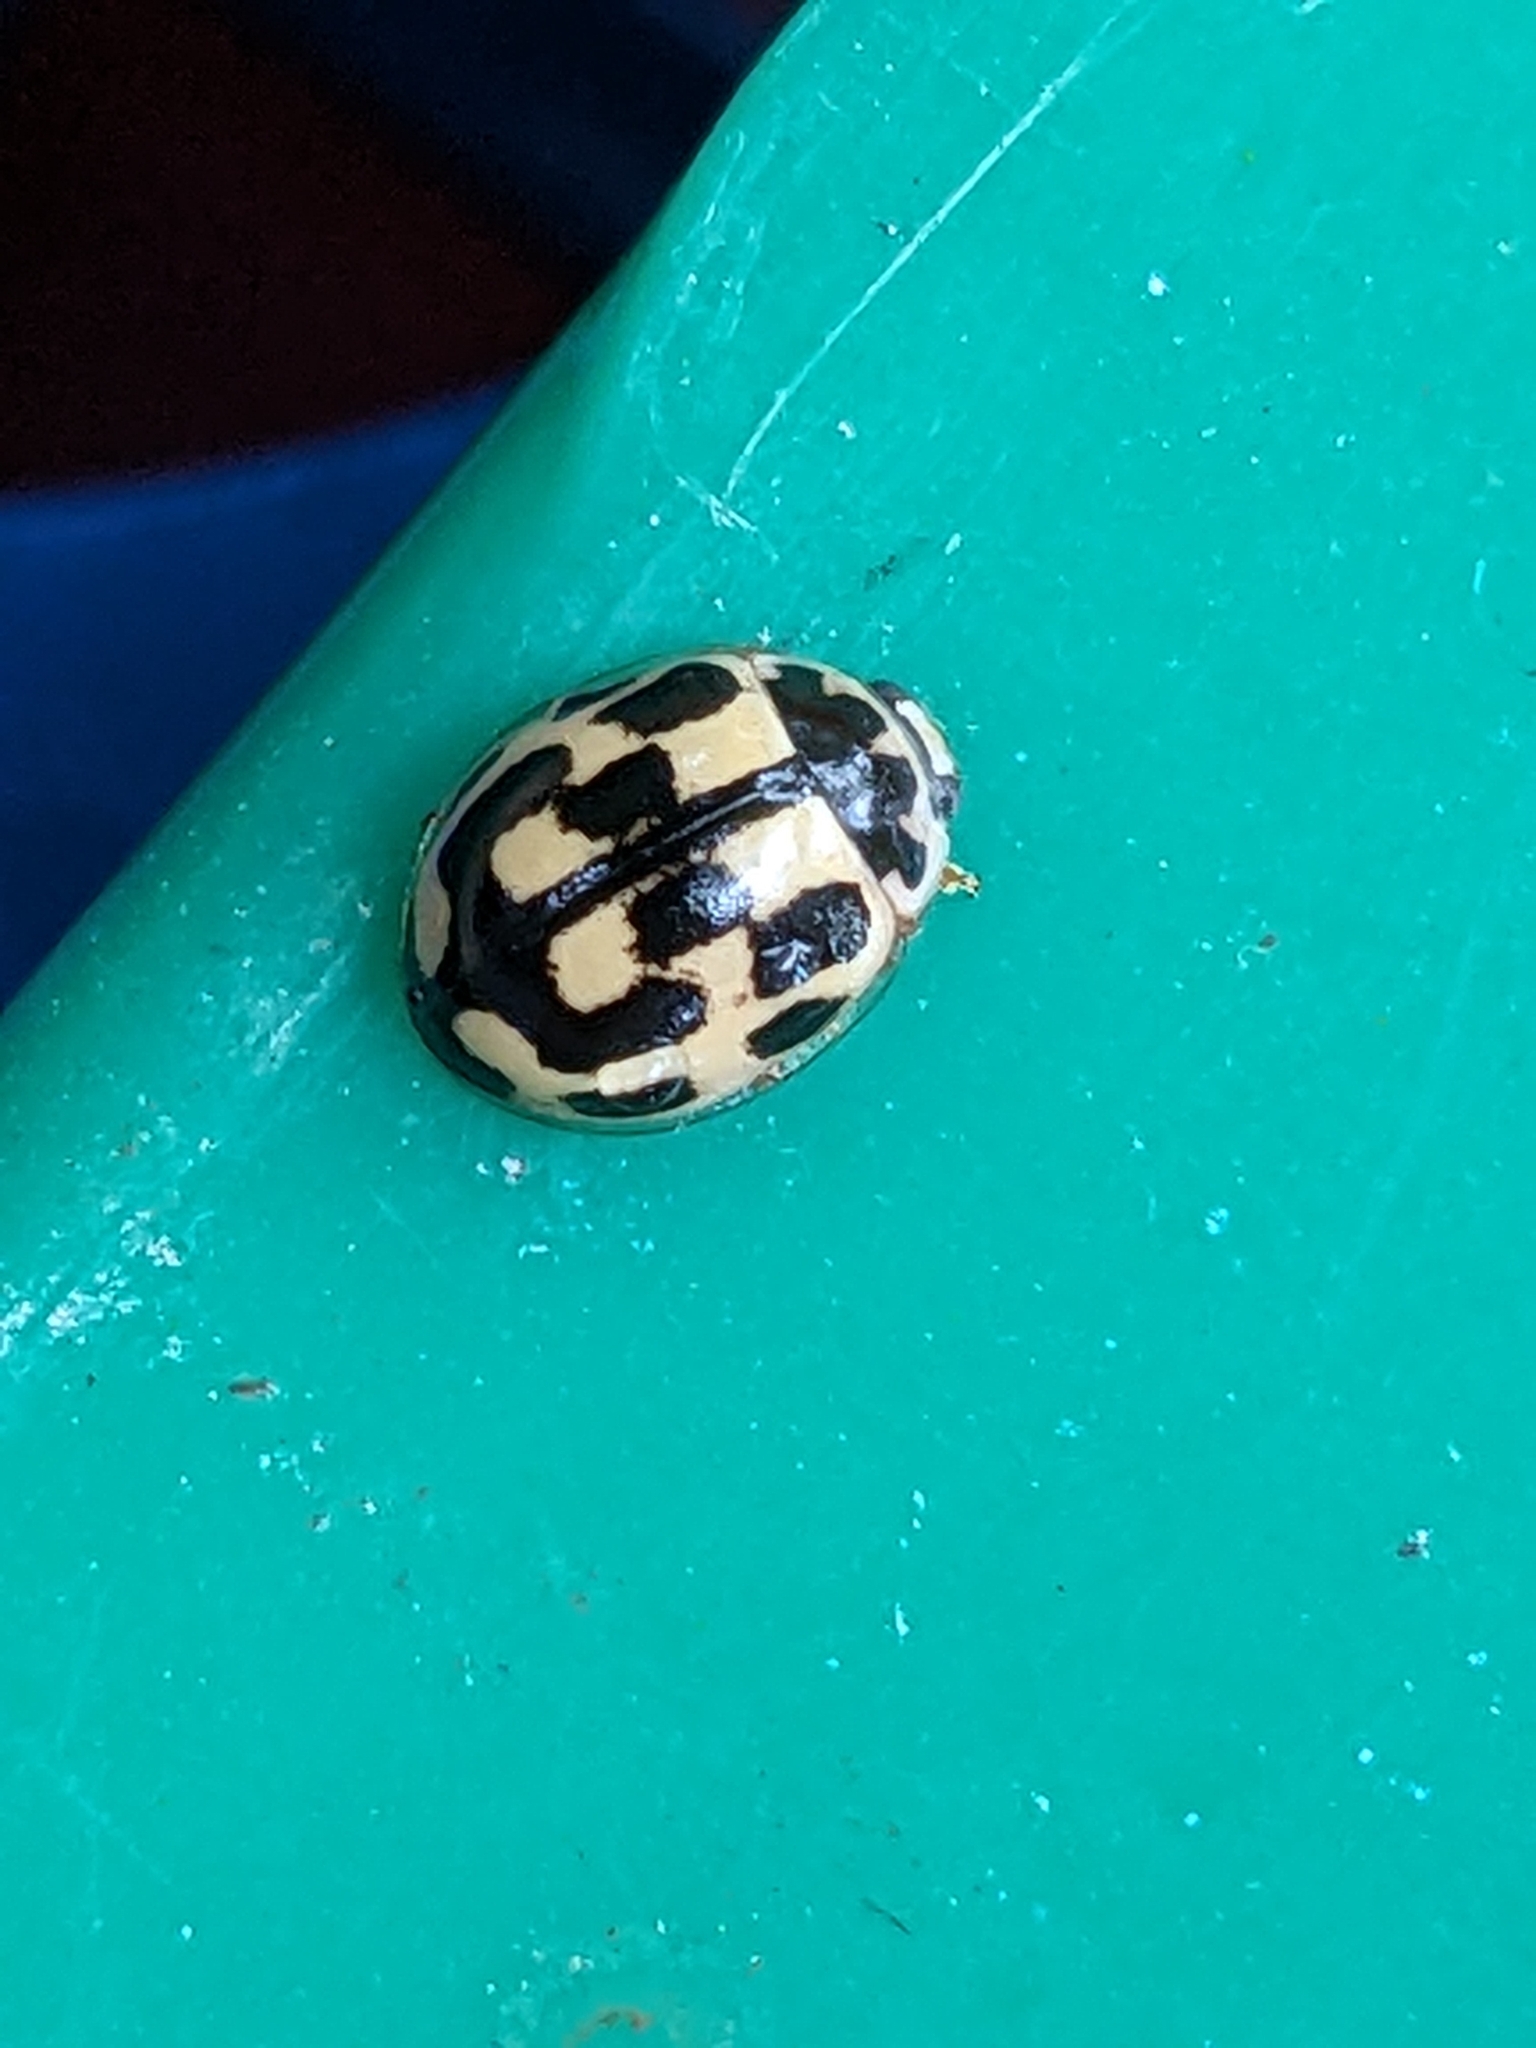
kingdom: Animalia
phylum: Arthropoda
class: Insecta
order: Coleoptera
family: Coccinellidae
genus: Propylaea
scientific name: Propylaea quatuordecimpunctata
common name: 14-spotted ladybird beetle
